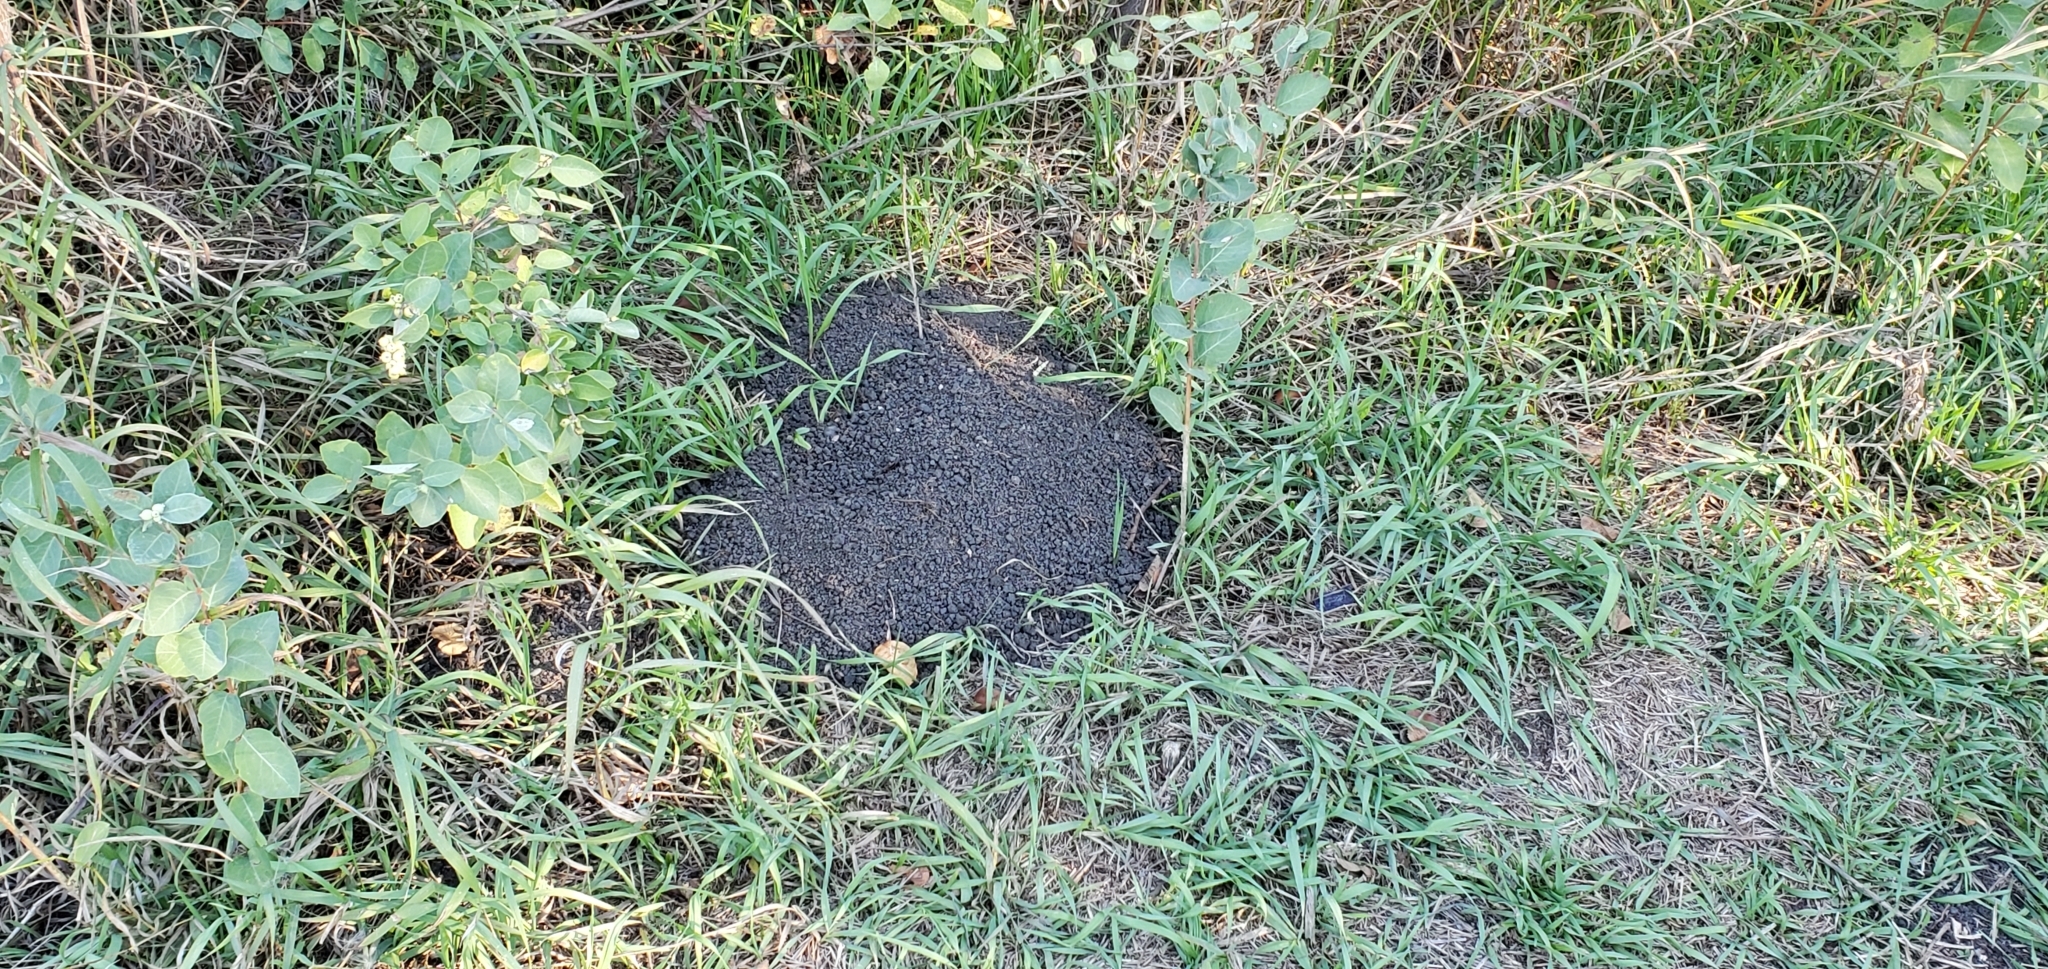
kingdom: Animalia
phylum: Chordata
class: Mammalia
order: Rodentia
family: Geomyidae
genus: Thomomys
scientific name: Thomomys talpoides
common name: Northern pocket gopher
